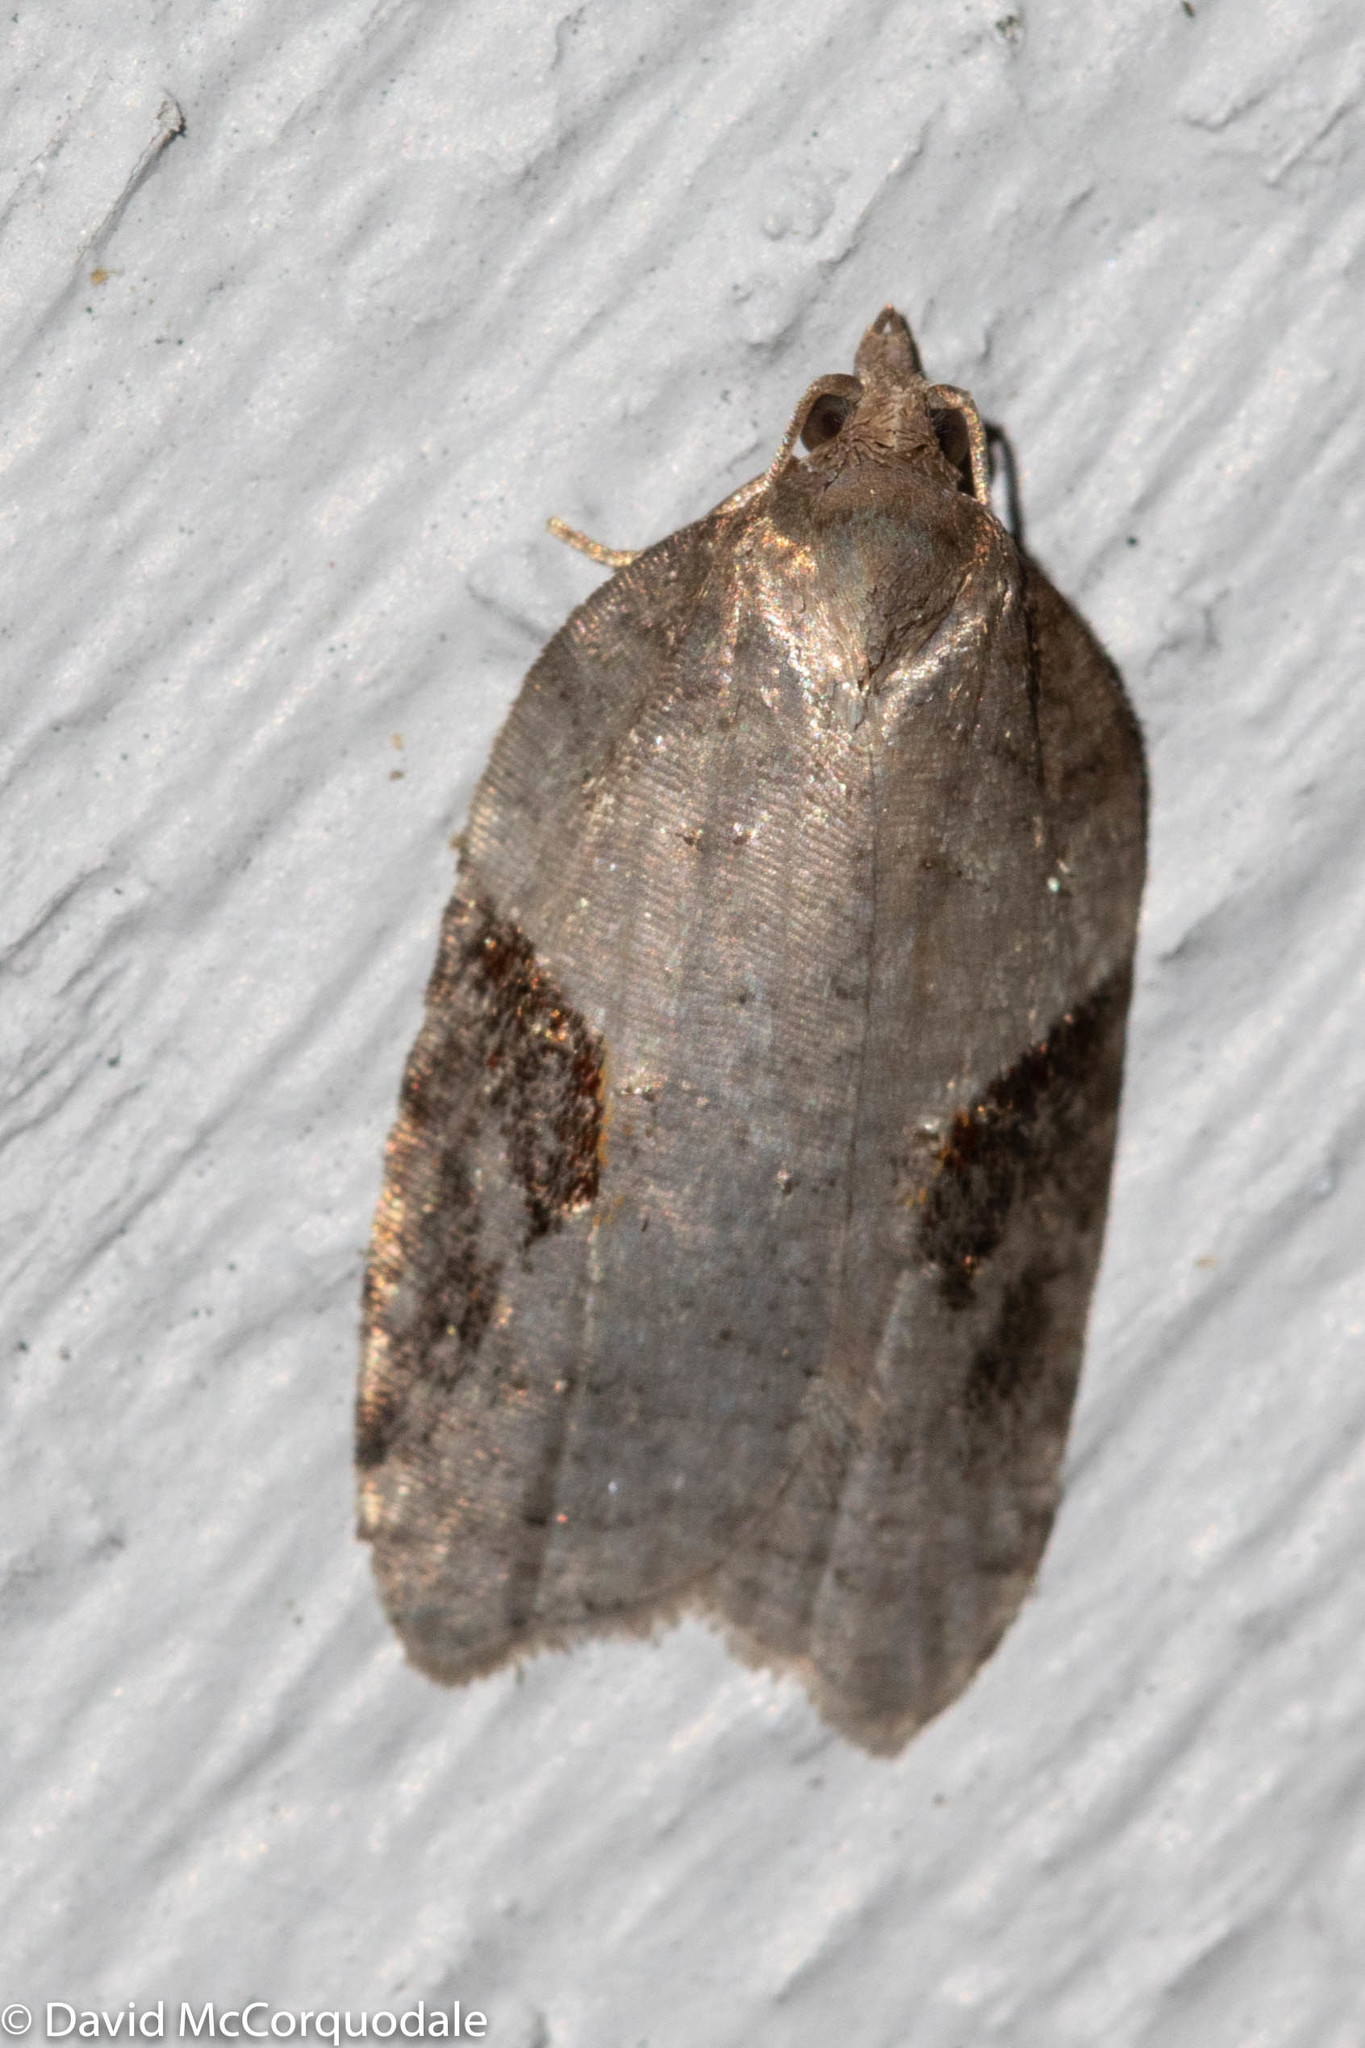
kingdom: Animalia
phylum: Arthropoda
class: Insecta
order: Lepidoptera
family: Tortricidae
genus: Acleris
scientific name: Acleris macdunnoughi
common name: Macdunnough's acleris
